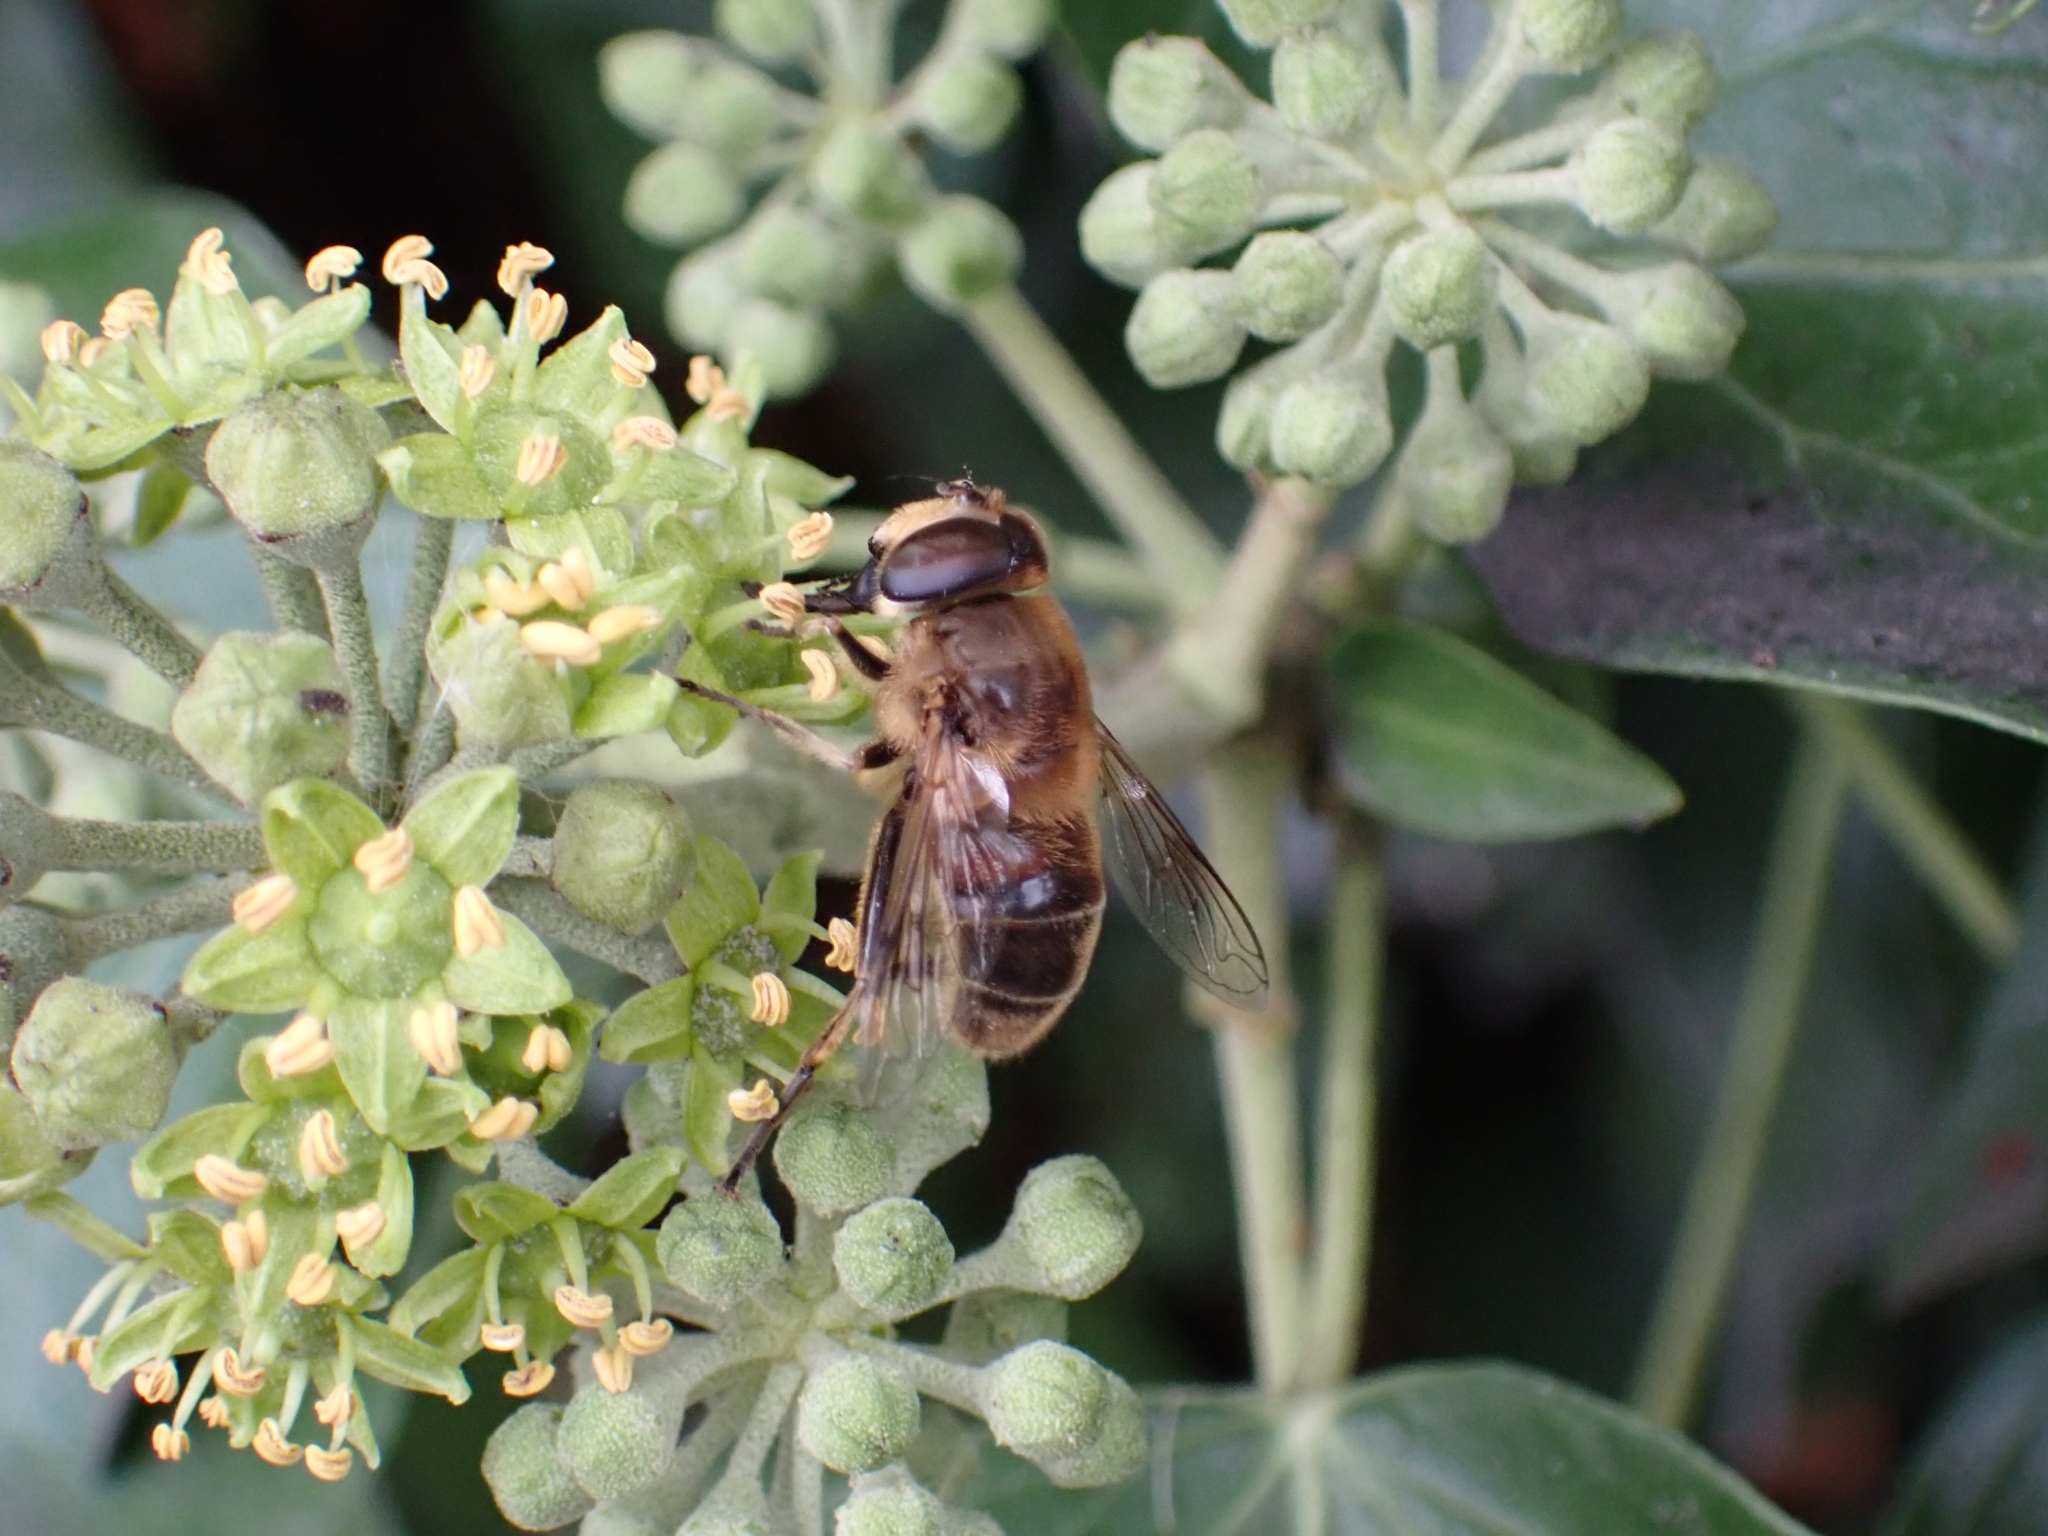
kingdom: Animalia
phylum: Arthropoda
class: Insecta
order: Diptera
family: Syrphidae
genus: Eristalis
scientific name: Eristalis tenax
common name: Drone fly
